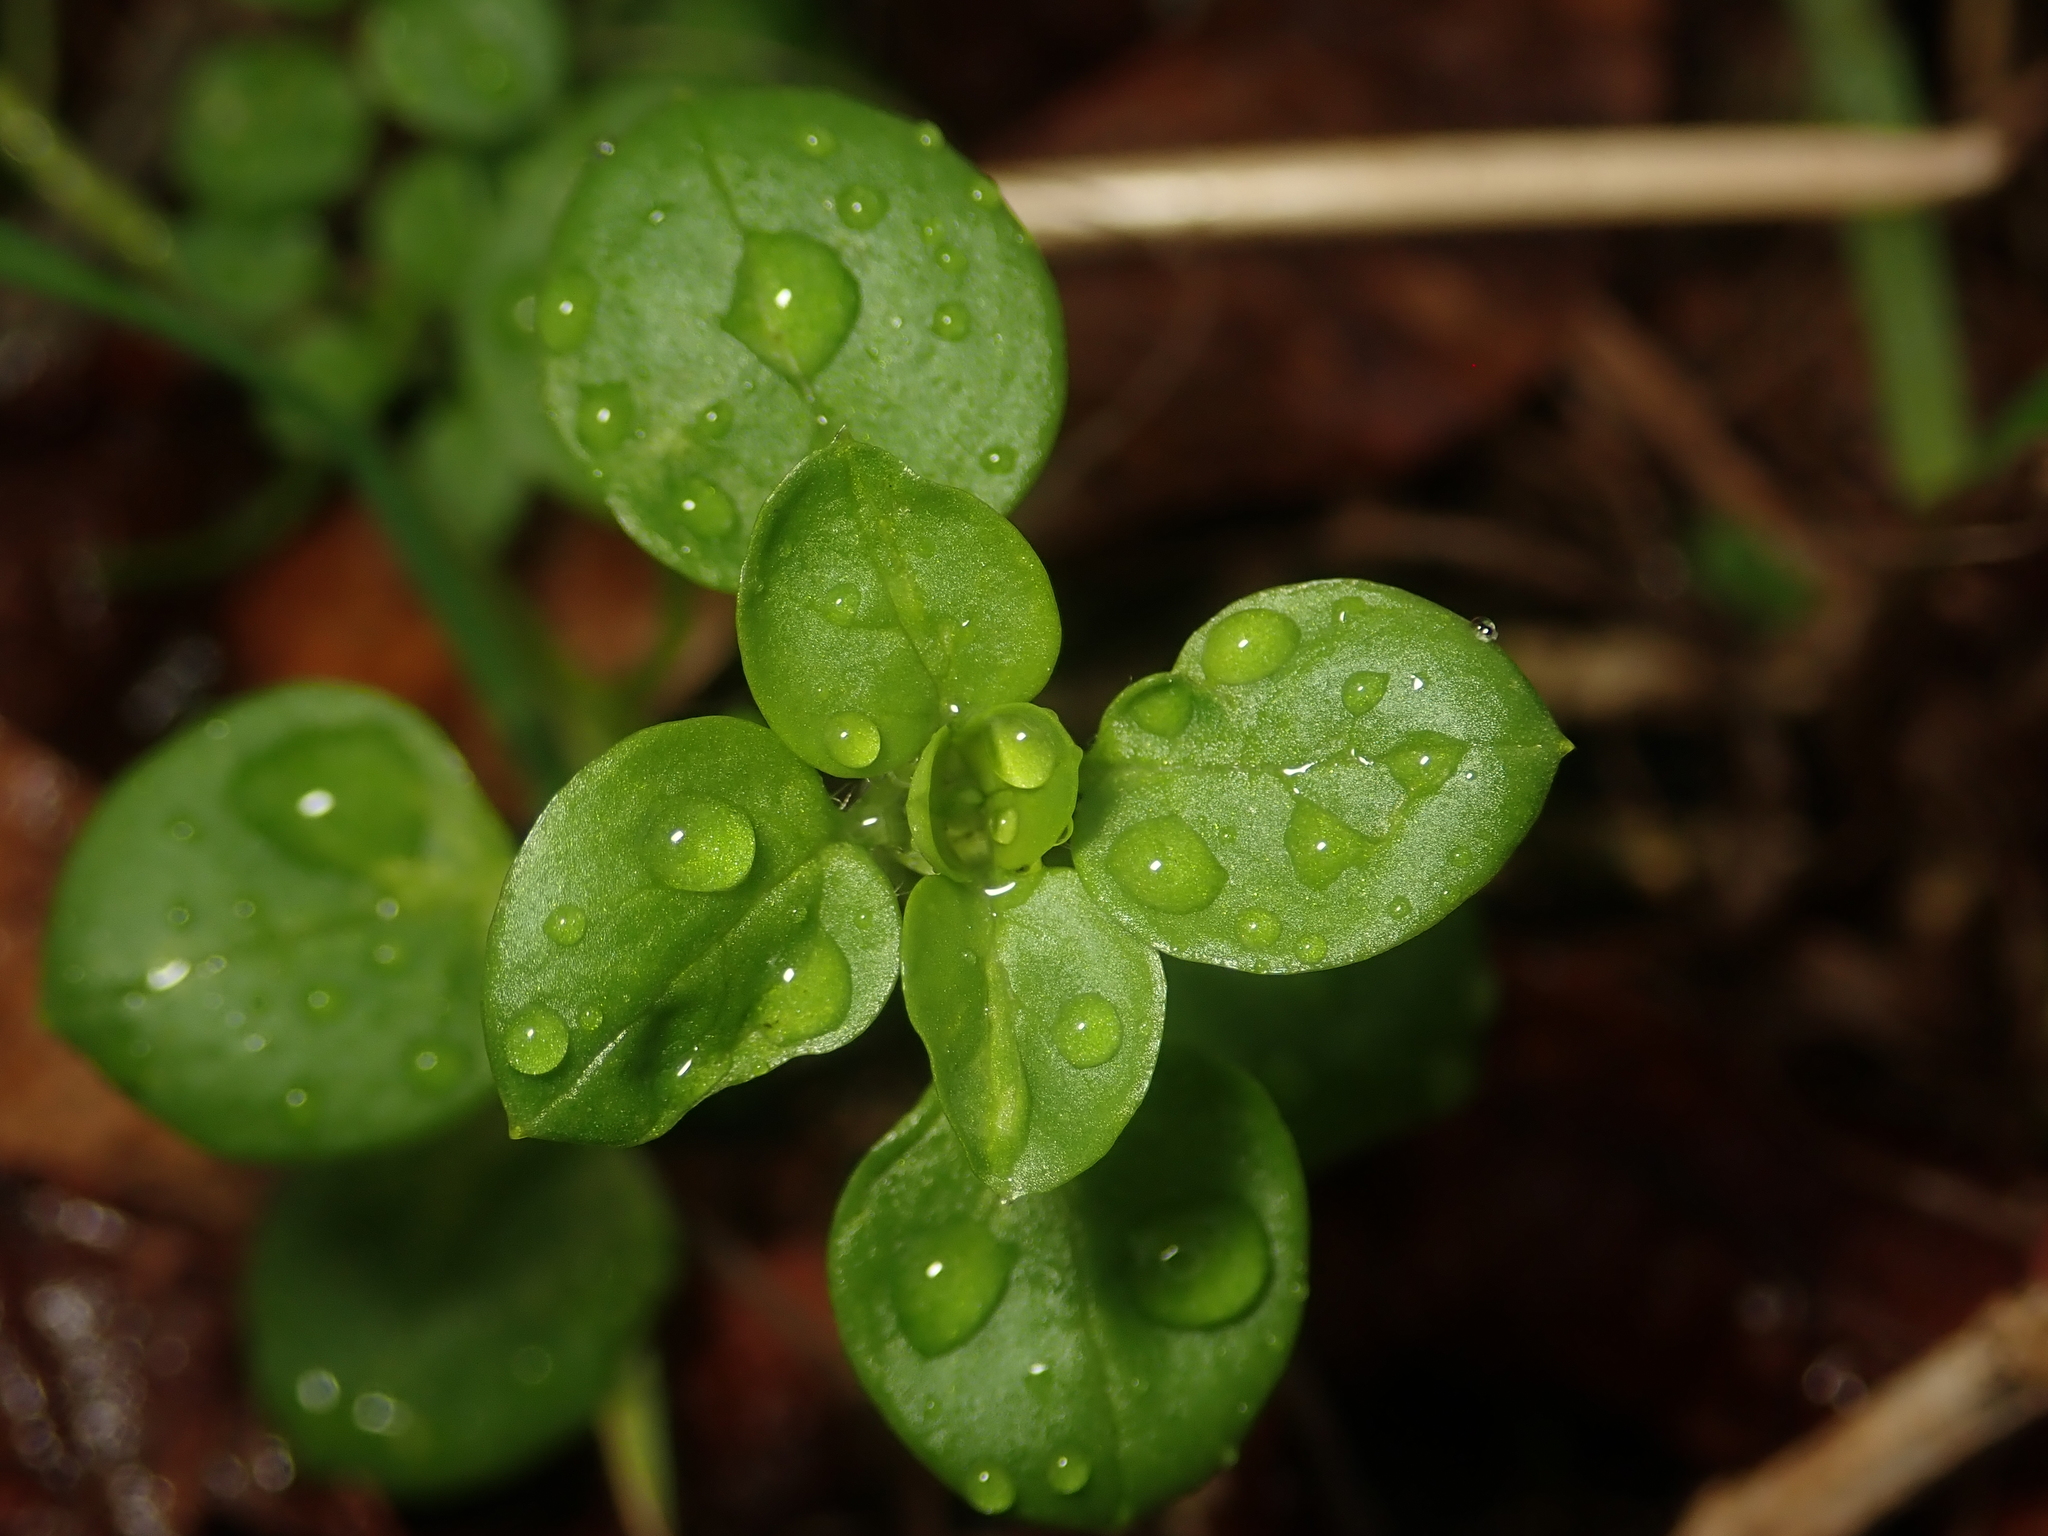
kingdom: Plantae
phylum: Tracheophyta
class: Magnoliopsida
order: Caryophyllales
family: Caryophyllaceae
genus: Stellaria
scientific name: Stellaria media
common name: Common chickweed
